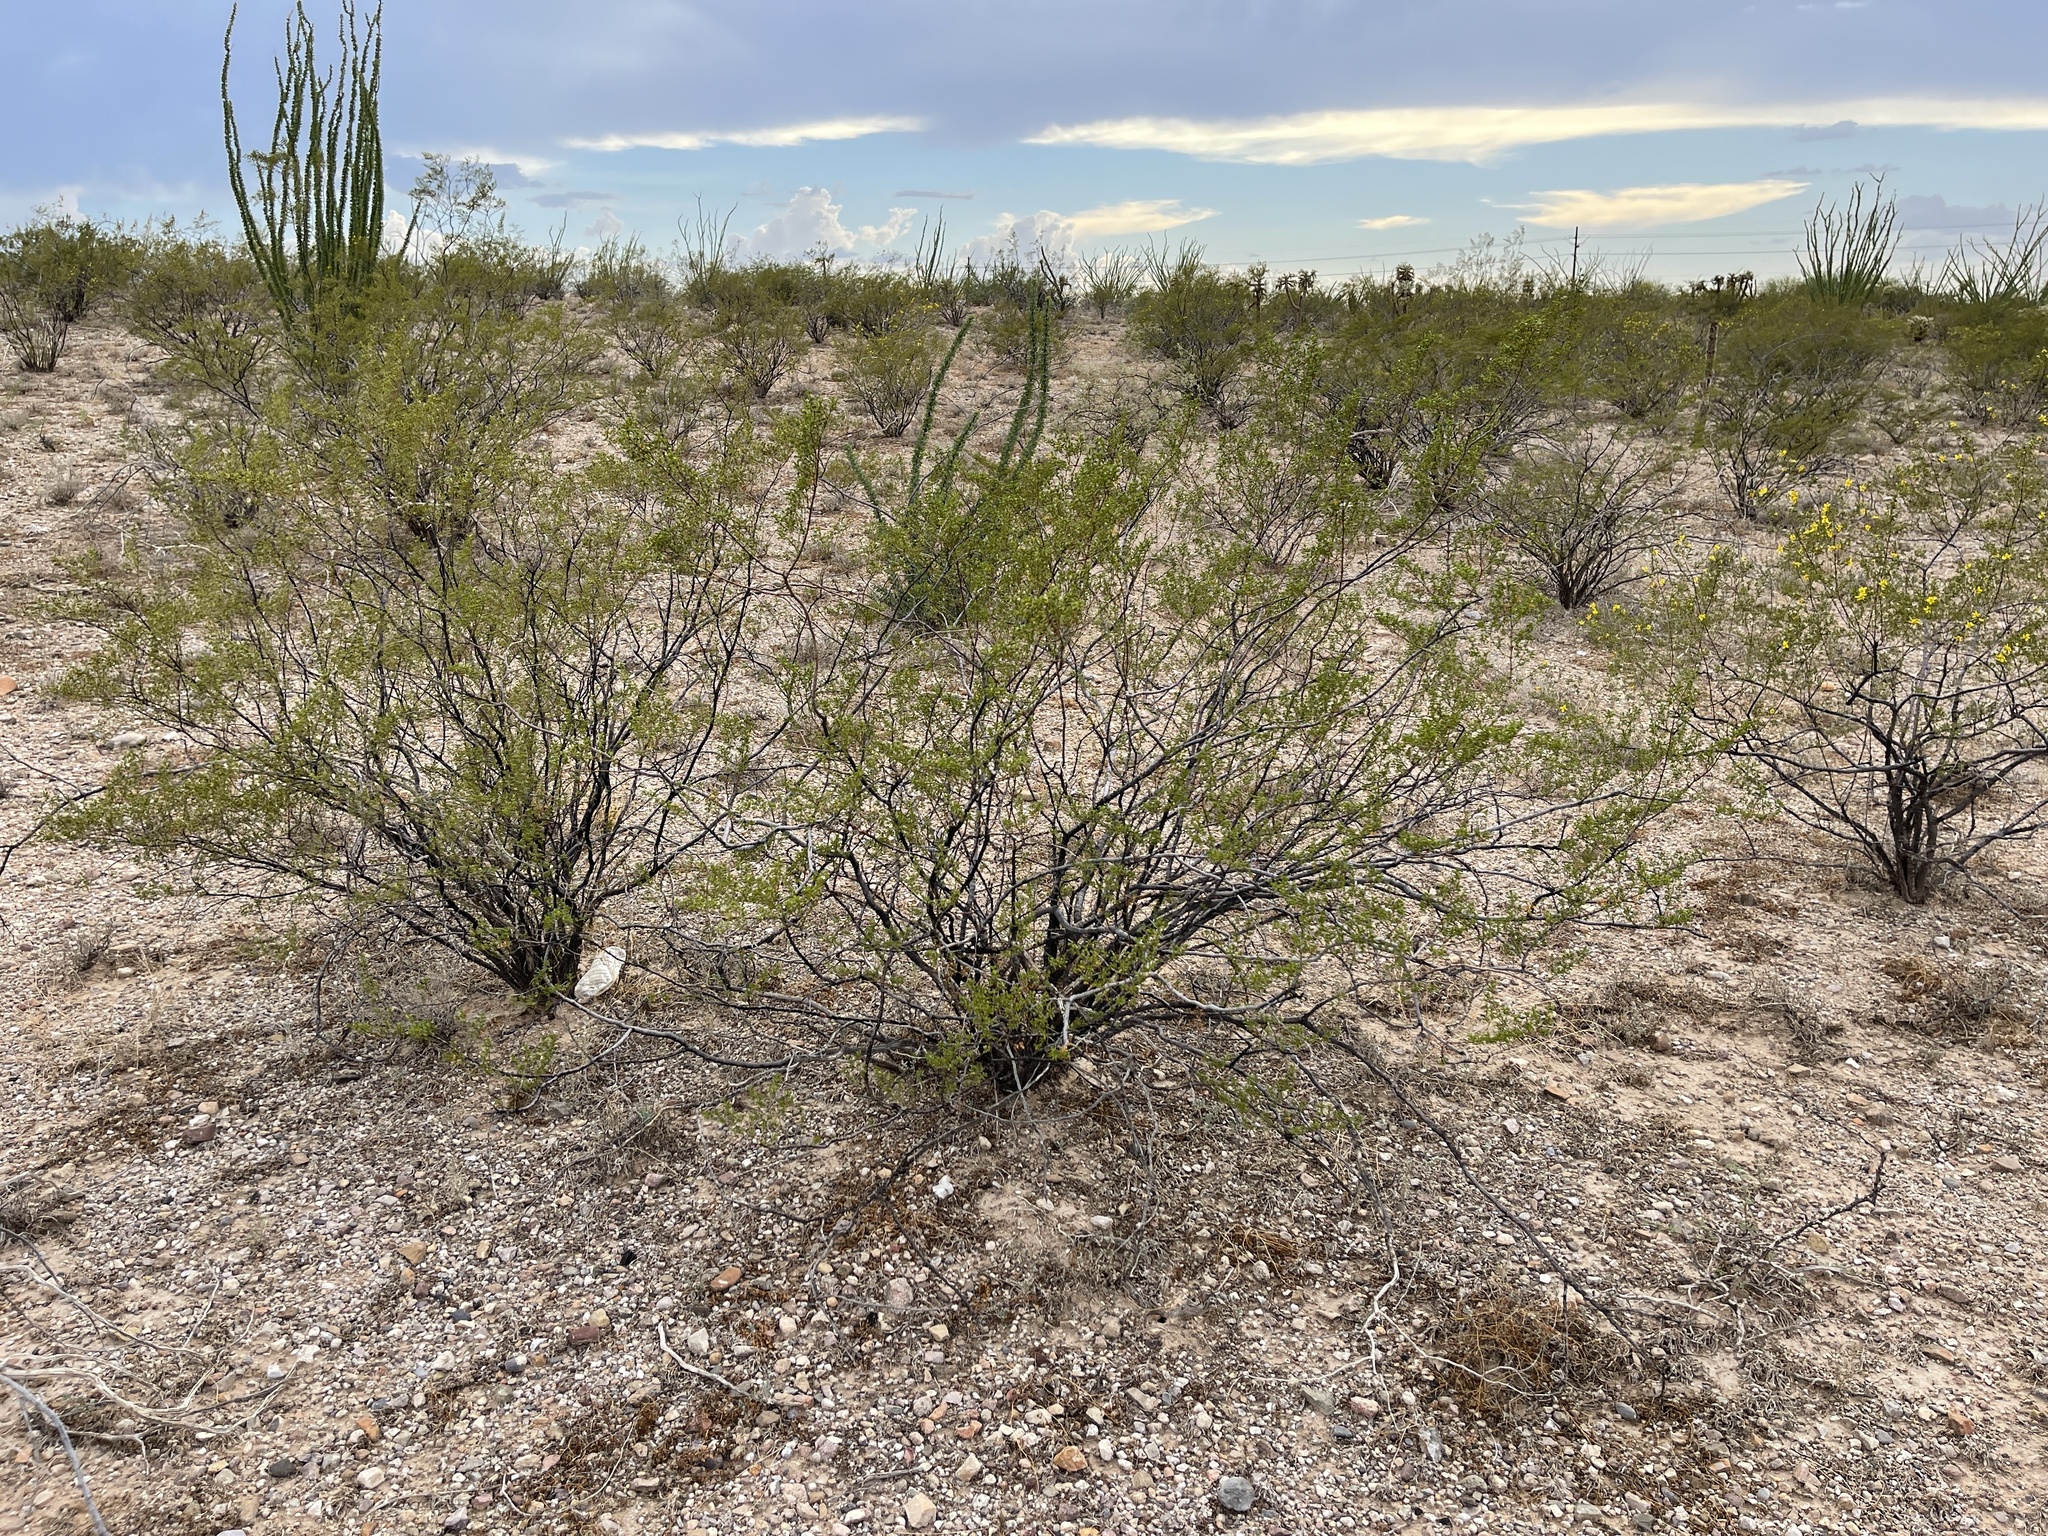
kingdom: Plantae
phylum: Tracheophyta
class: Magnoliopsida
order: Zygophyllales
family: Zygophyllaceae
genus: Larrea
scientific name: Larrea tridentata
